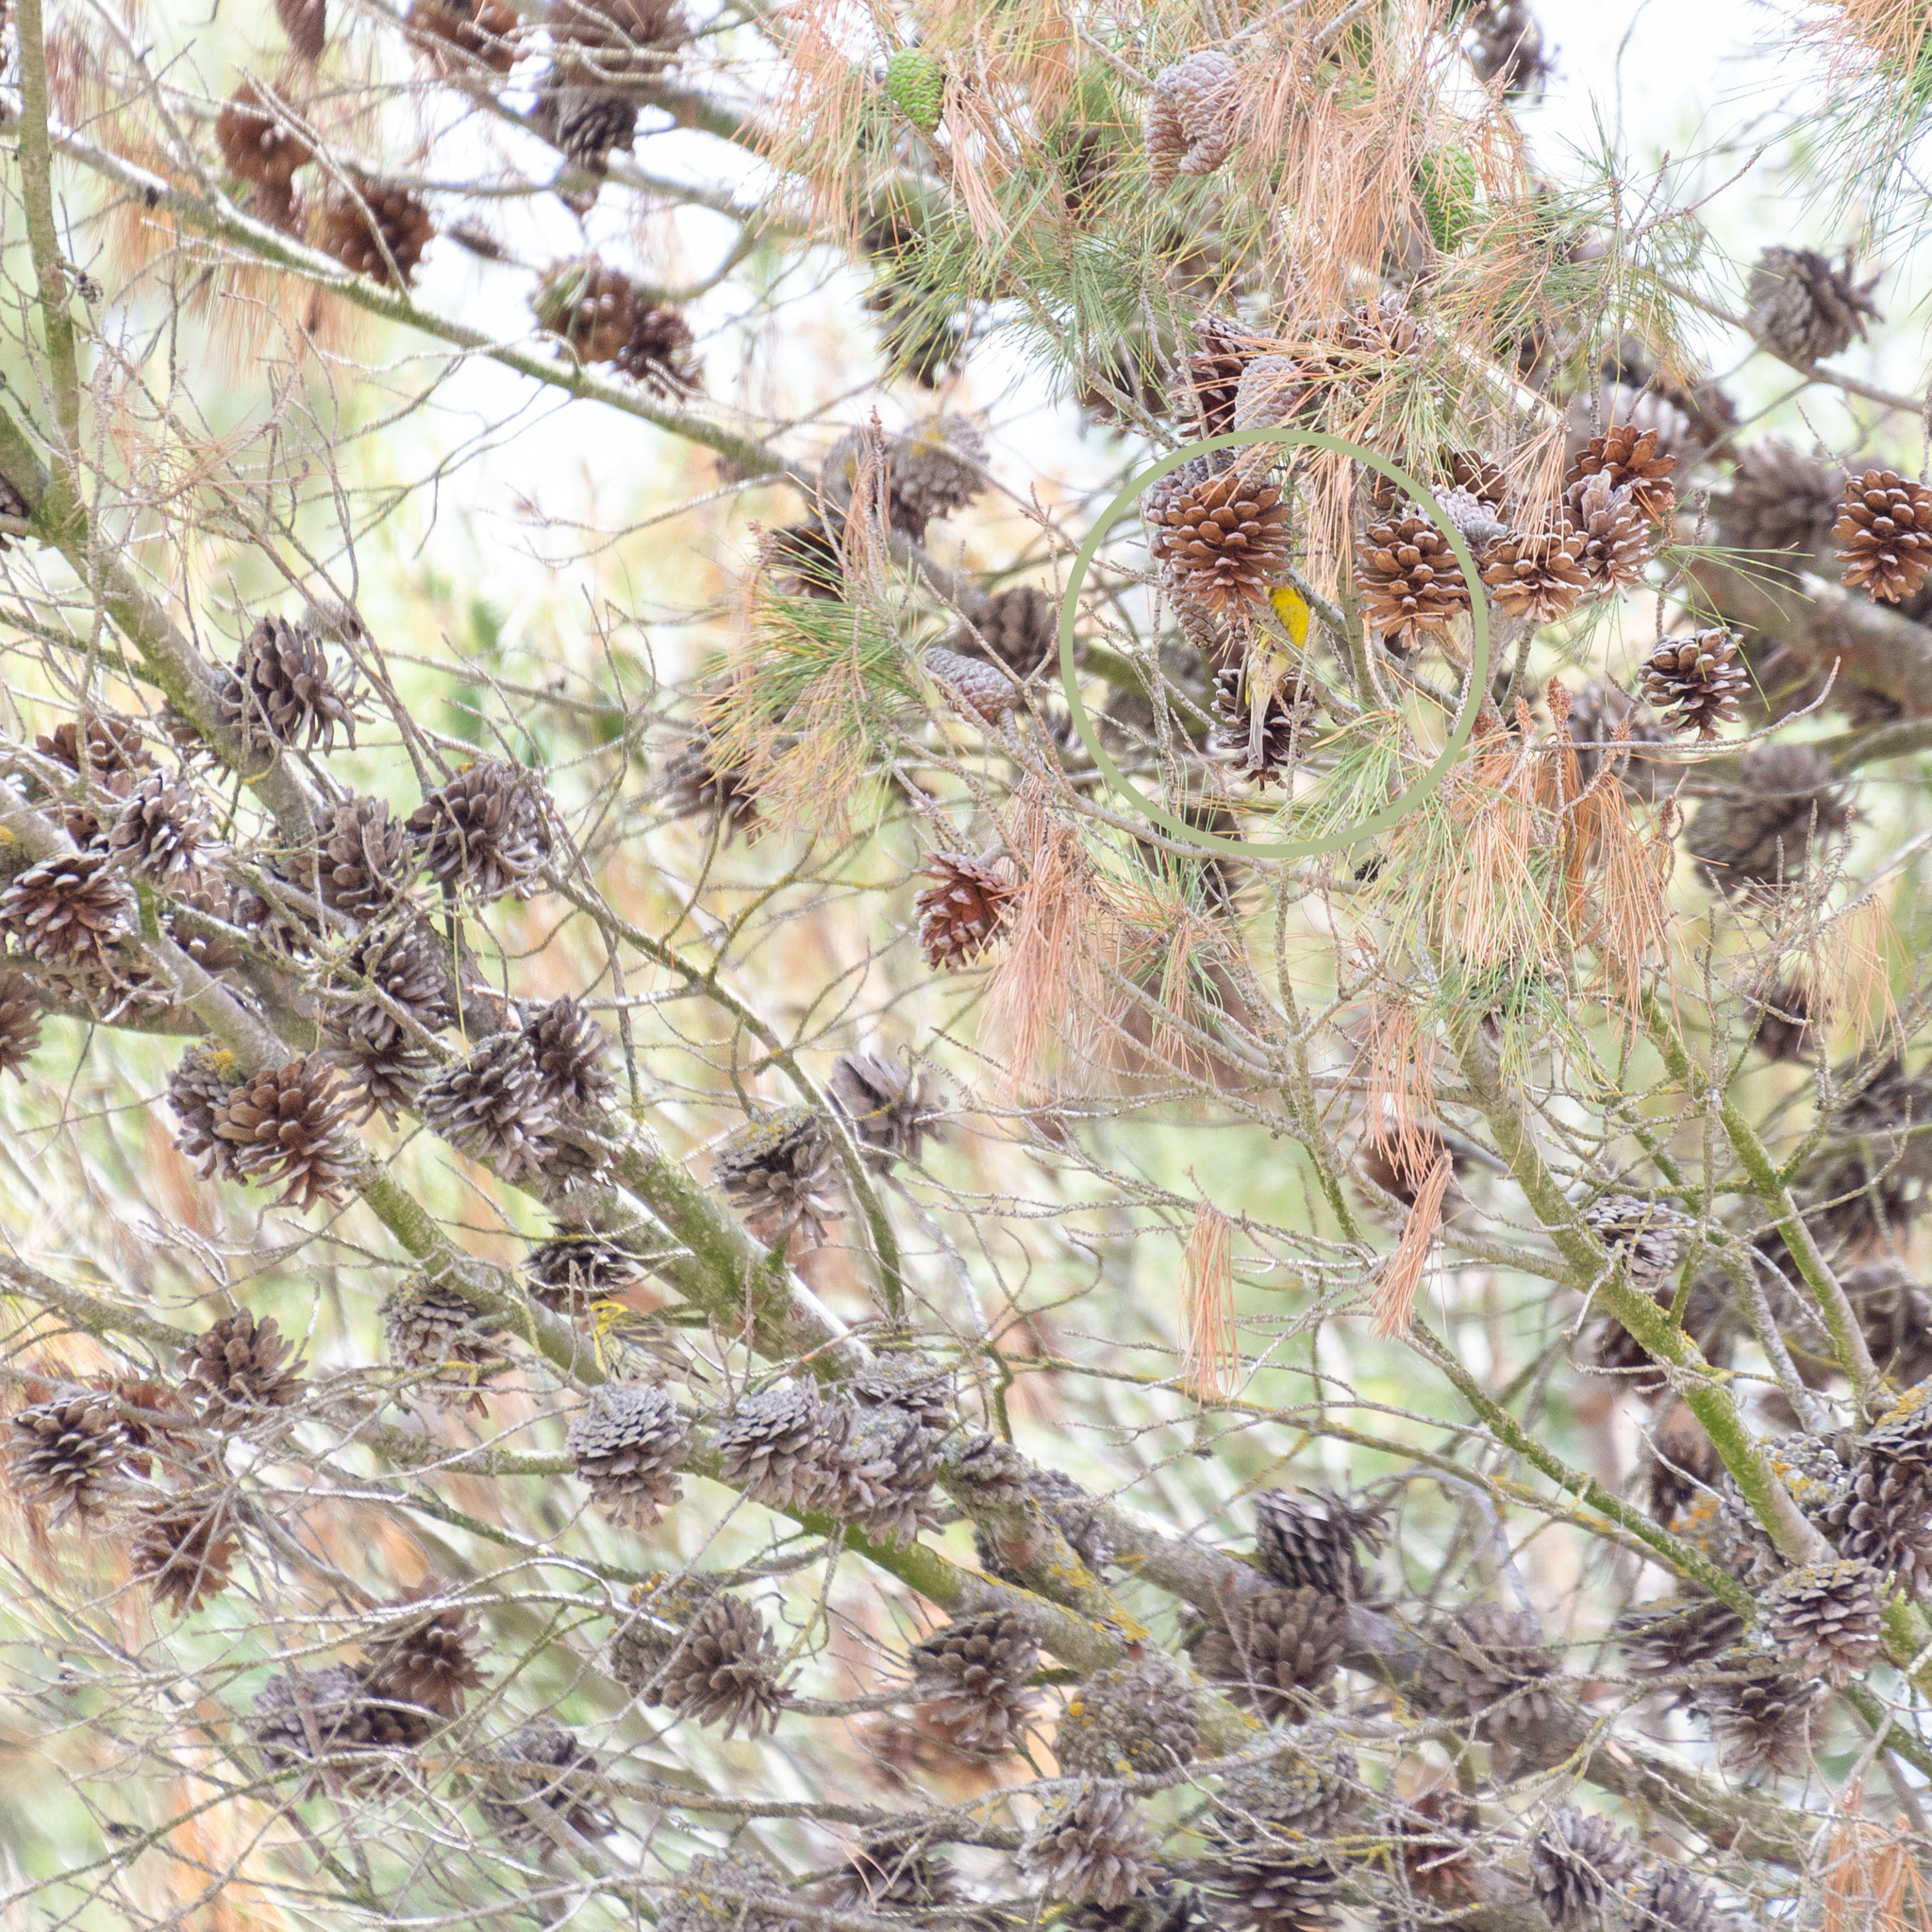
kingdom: Animalia
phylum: Chordata
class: Aves
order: Passeriformes
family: Fringillidae
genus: Serinus
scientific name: Serinus serinus
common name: European serin
